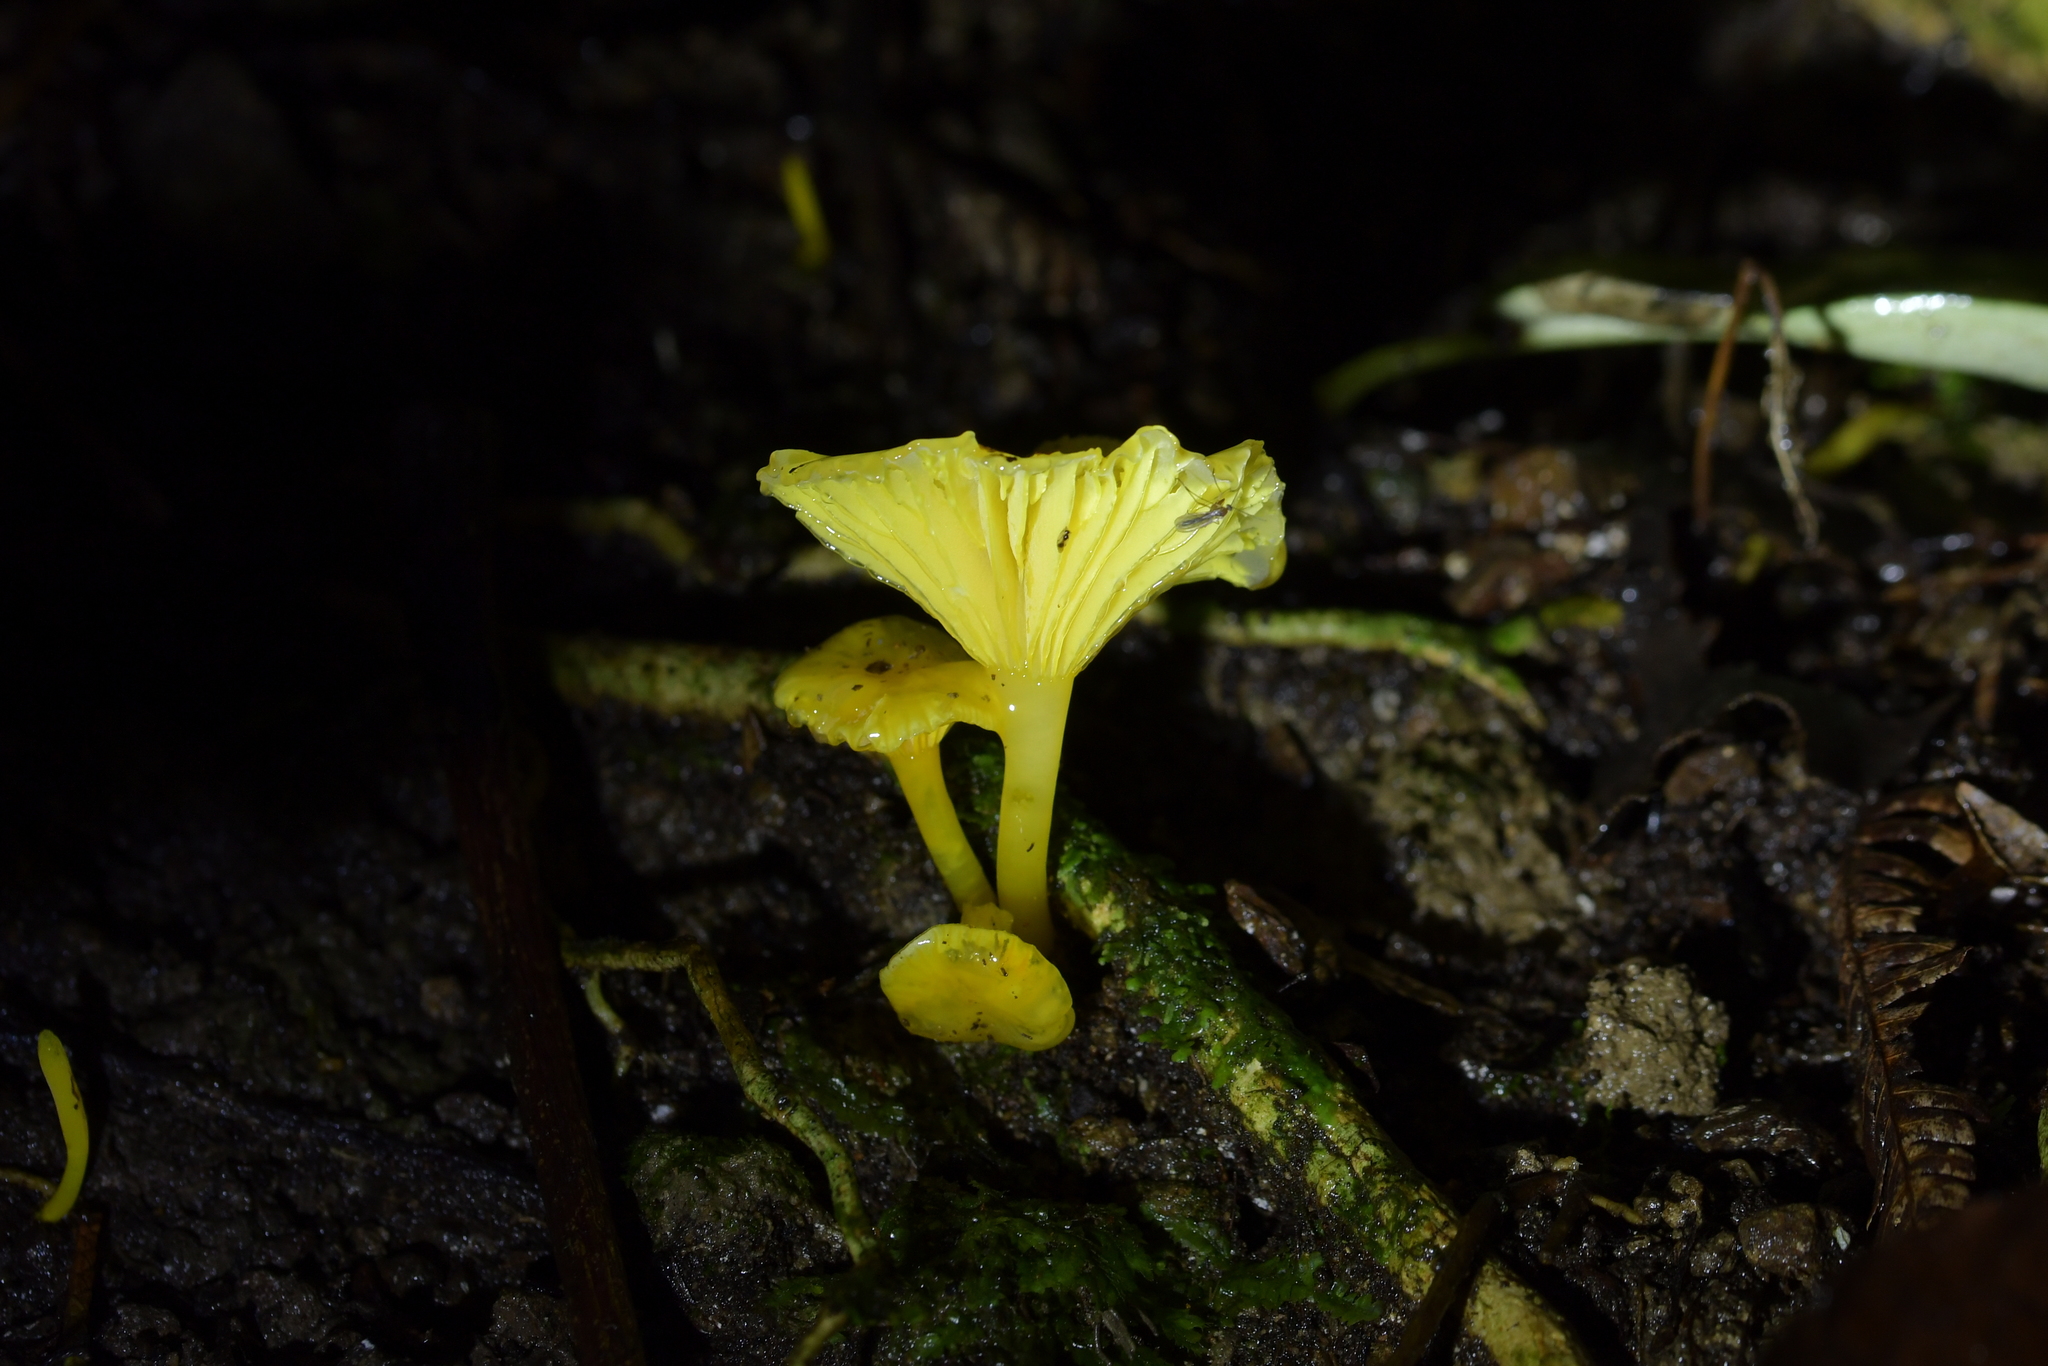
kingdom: Fungi
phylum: Basidiomycota
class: Agaricomycetes
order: Agaricales
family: Hygrophoraceae
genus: Gloioxanthomyces
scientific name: Gloioxanthomyces
